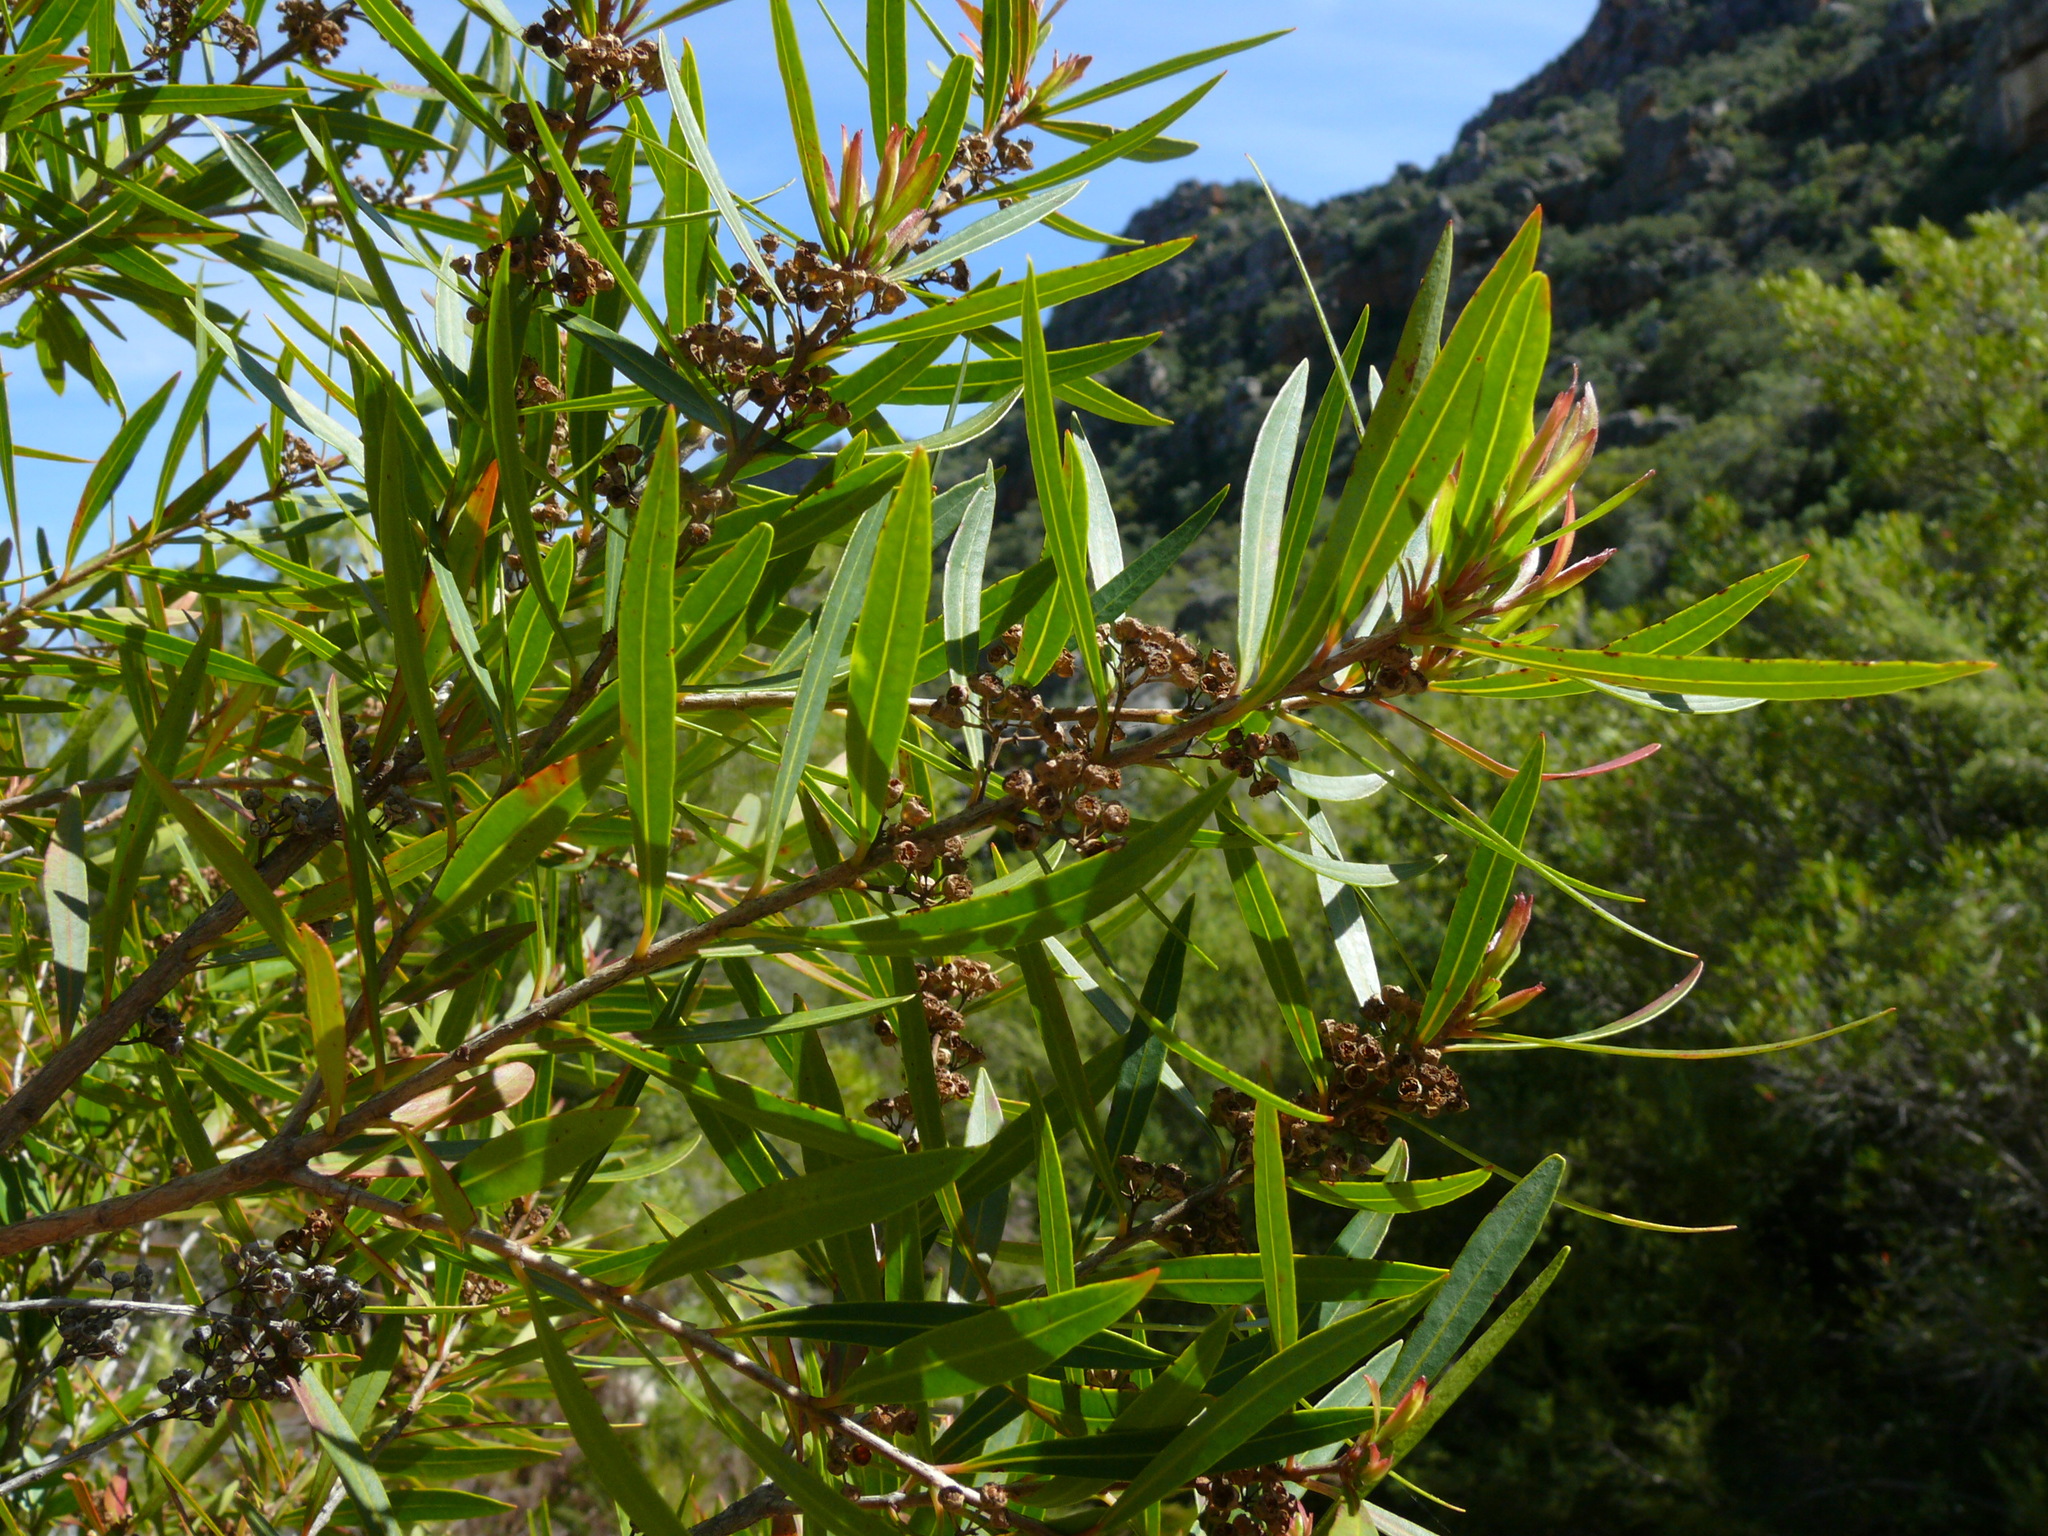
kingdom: Plantae
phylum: Tracheophyta
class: Magnoliopsida
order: Myrtales
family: Myrtaceae
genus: Callistemon
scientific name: Callistemon lanceolatus
